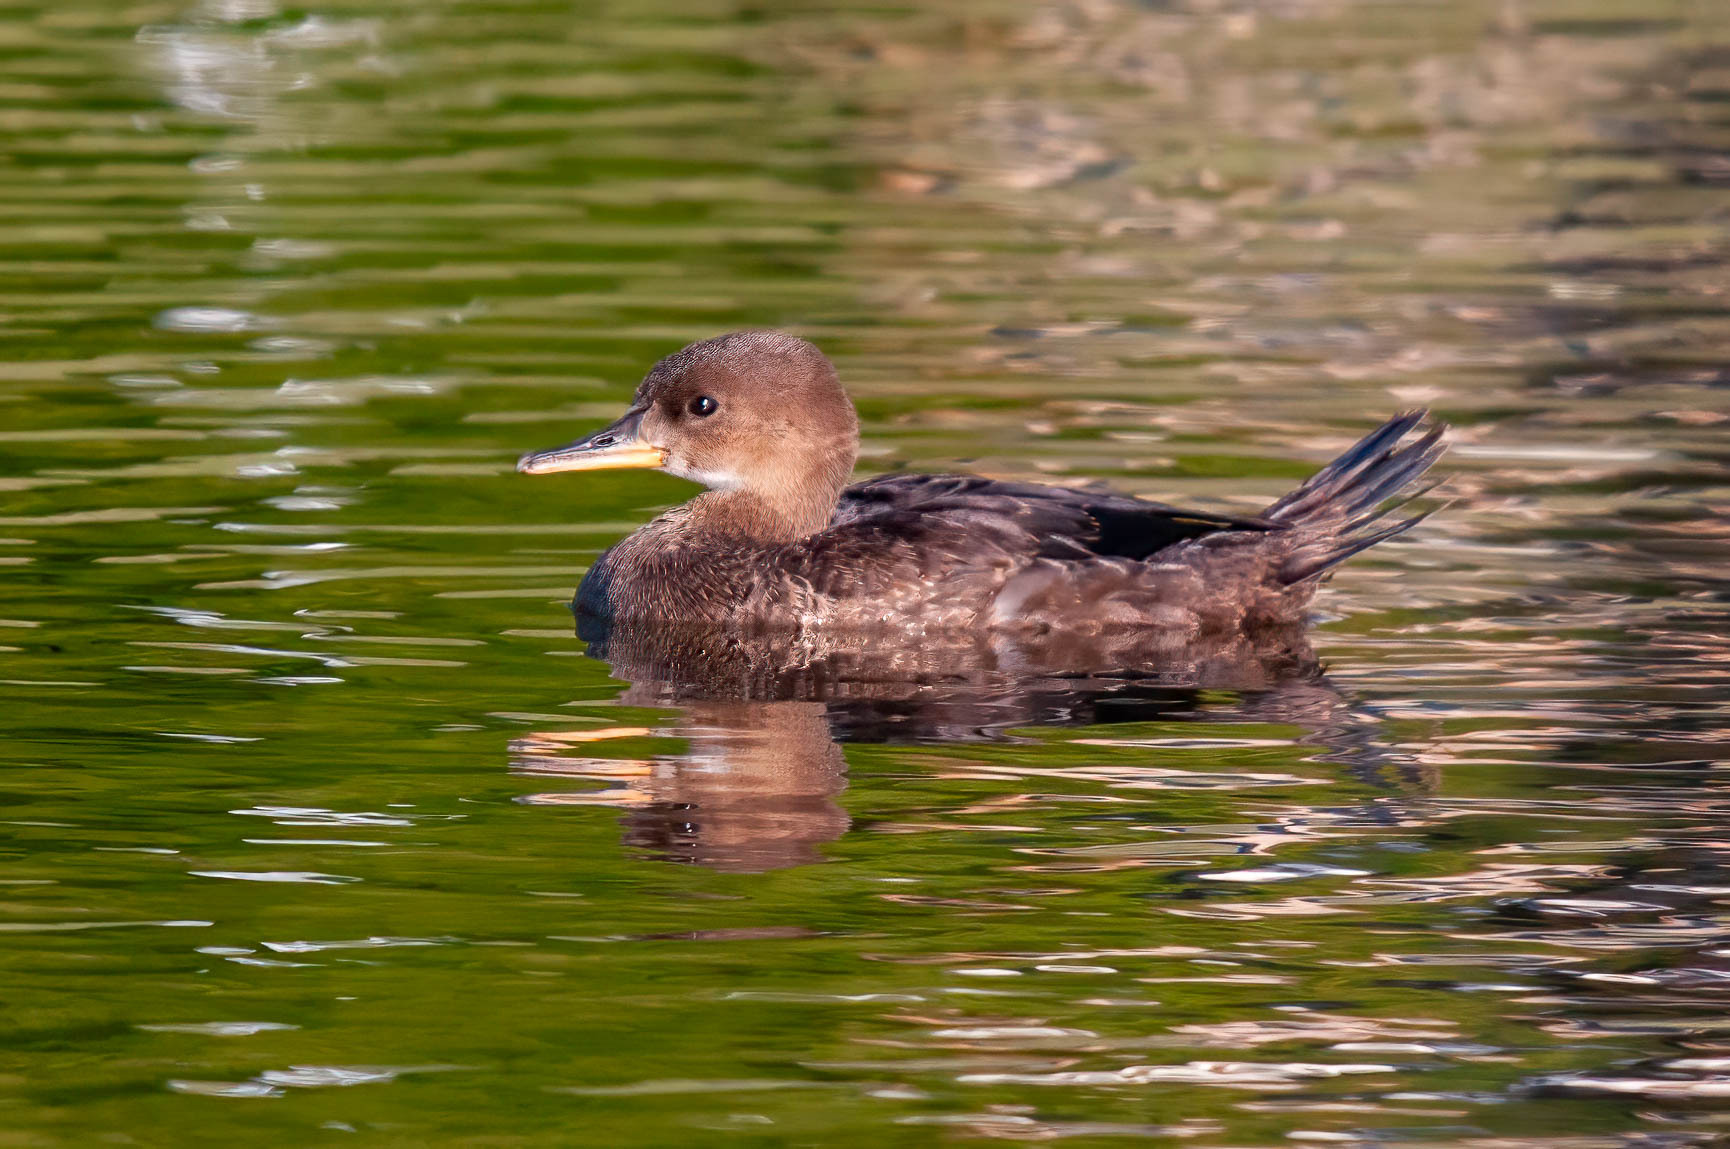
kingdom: Animalia
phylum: Chordata
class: Aves
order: Anseriformes
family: Anatidae
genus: Lophodytes
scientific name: Lophodytes cucullatus
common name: Hooded merganser
